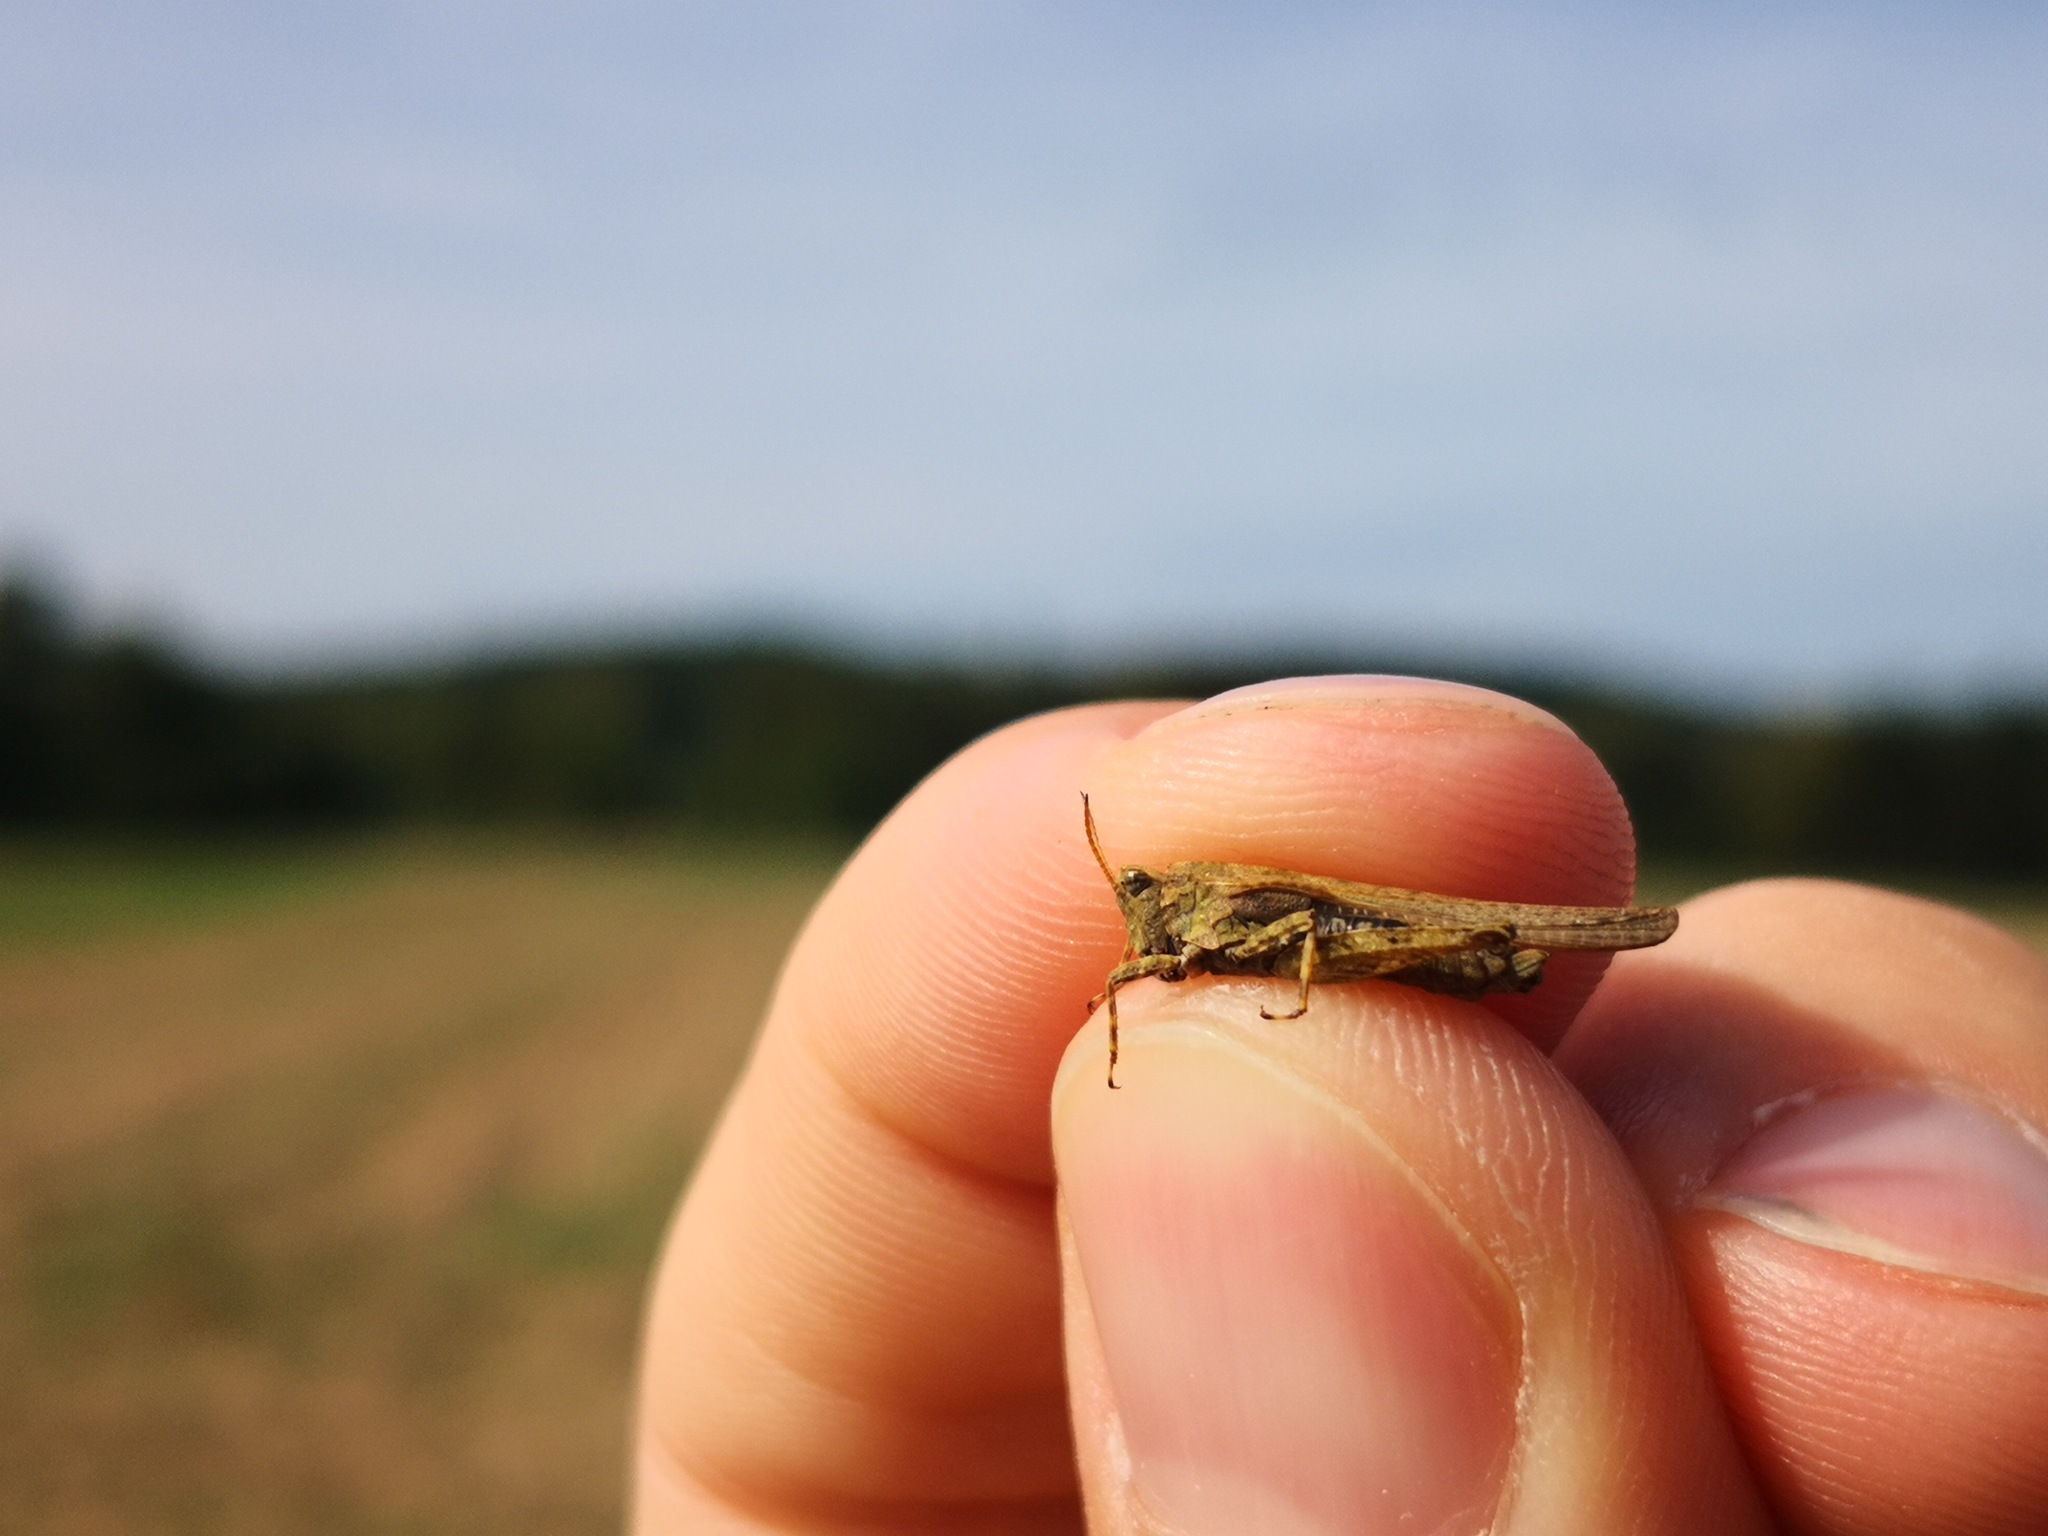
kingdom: Animalia
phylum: Arthropoda
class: Insecta
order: Orthoptera
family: Tetrigidae
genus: Tetrix
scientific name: Tetrix subulata
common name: Slender ground-hopper
